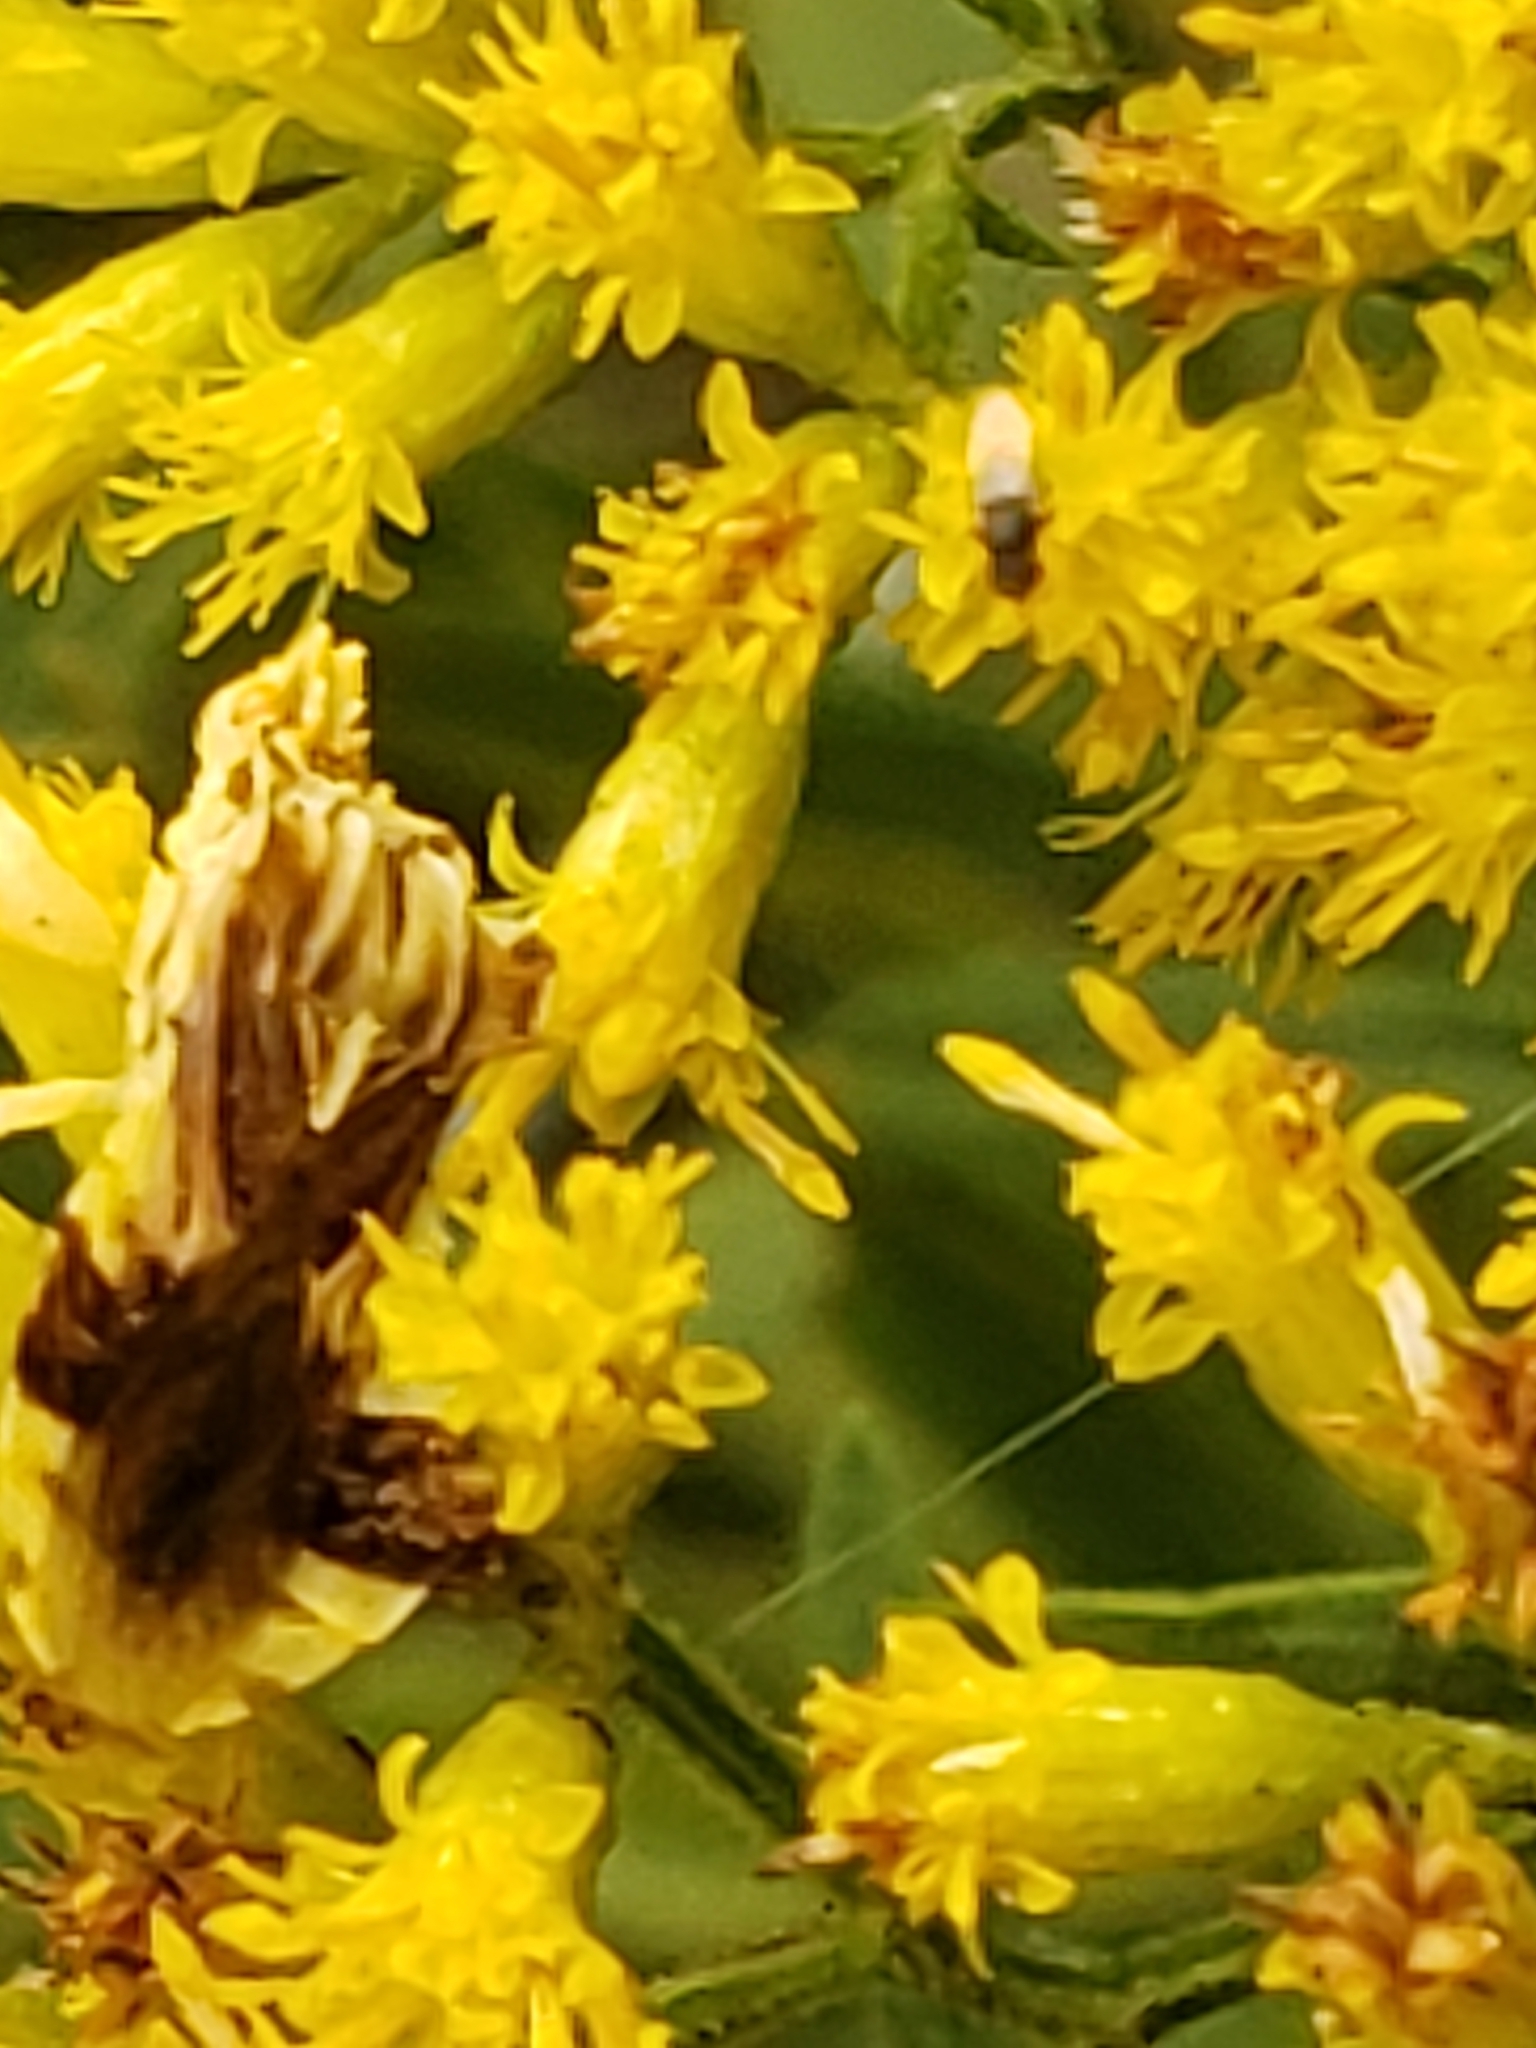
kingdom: Animalia
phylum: Arthropoda
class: Insecta
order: Hemiptera
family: Reduviidae
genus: Phymata
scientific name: Phymata fasciata
